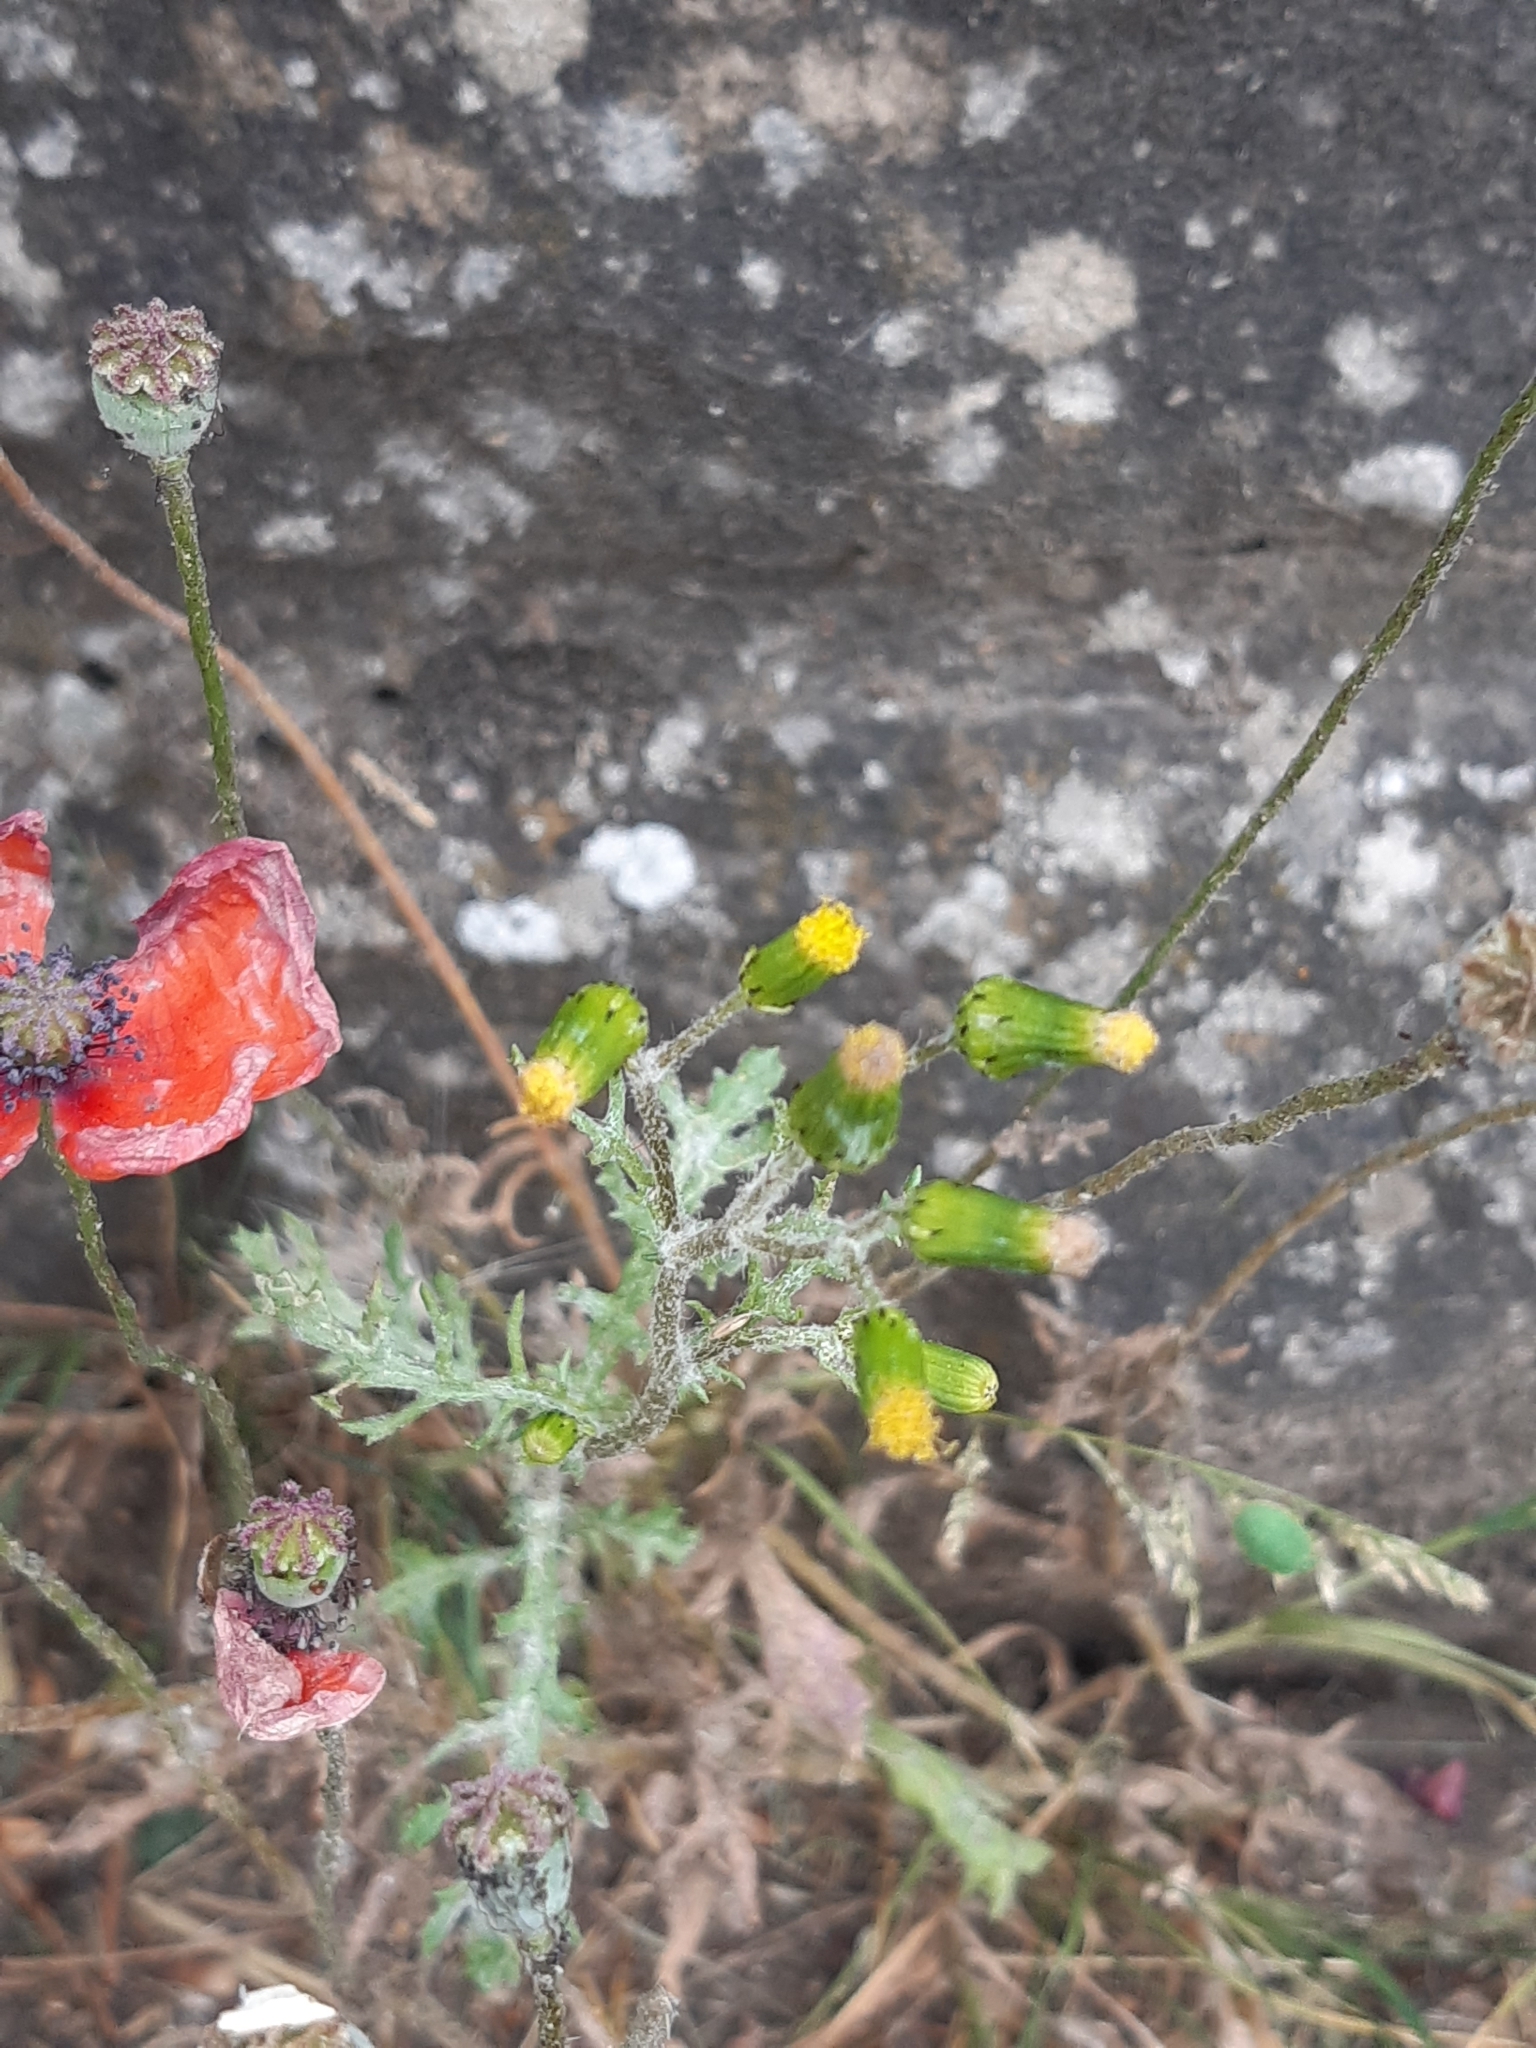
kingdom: Plantae
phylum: Tracheophyta
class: Magnoliopsida
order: Asterales
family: Asteraceae
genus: Senecio
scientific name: Senecio vulgaris
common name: Old-man-in-the-spring
